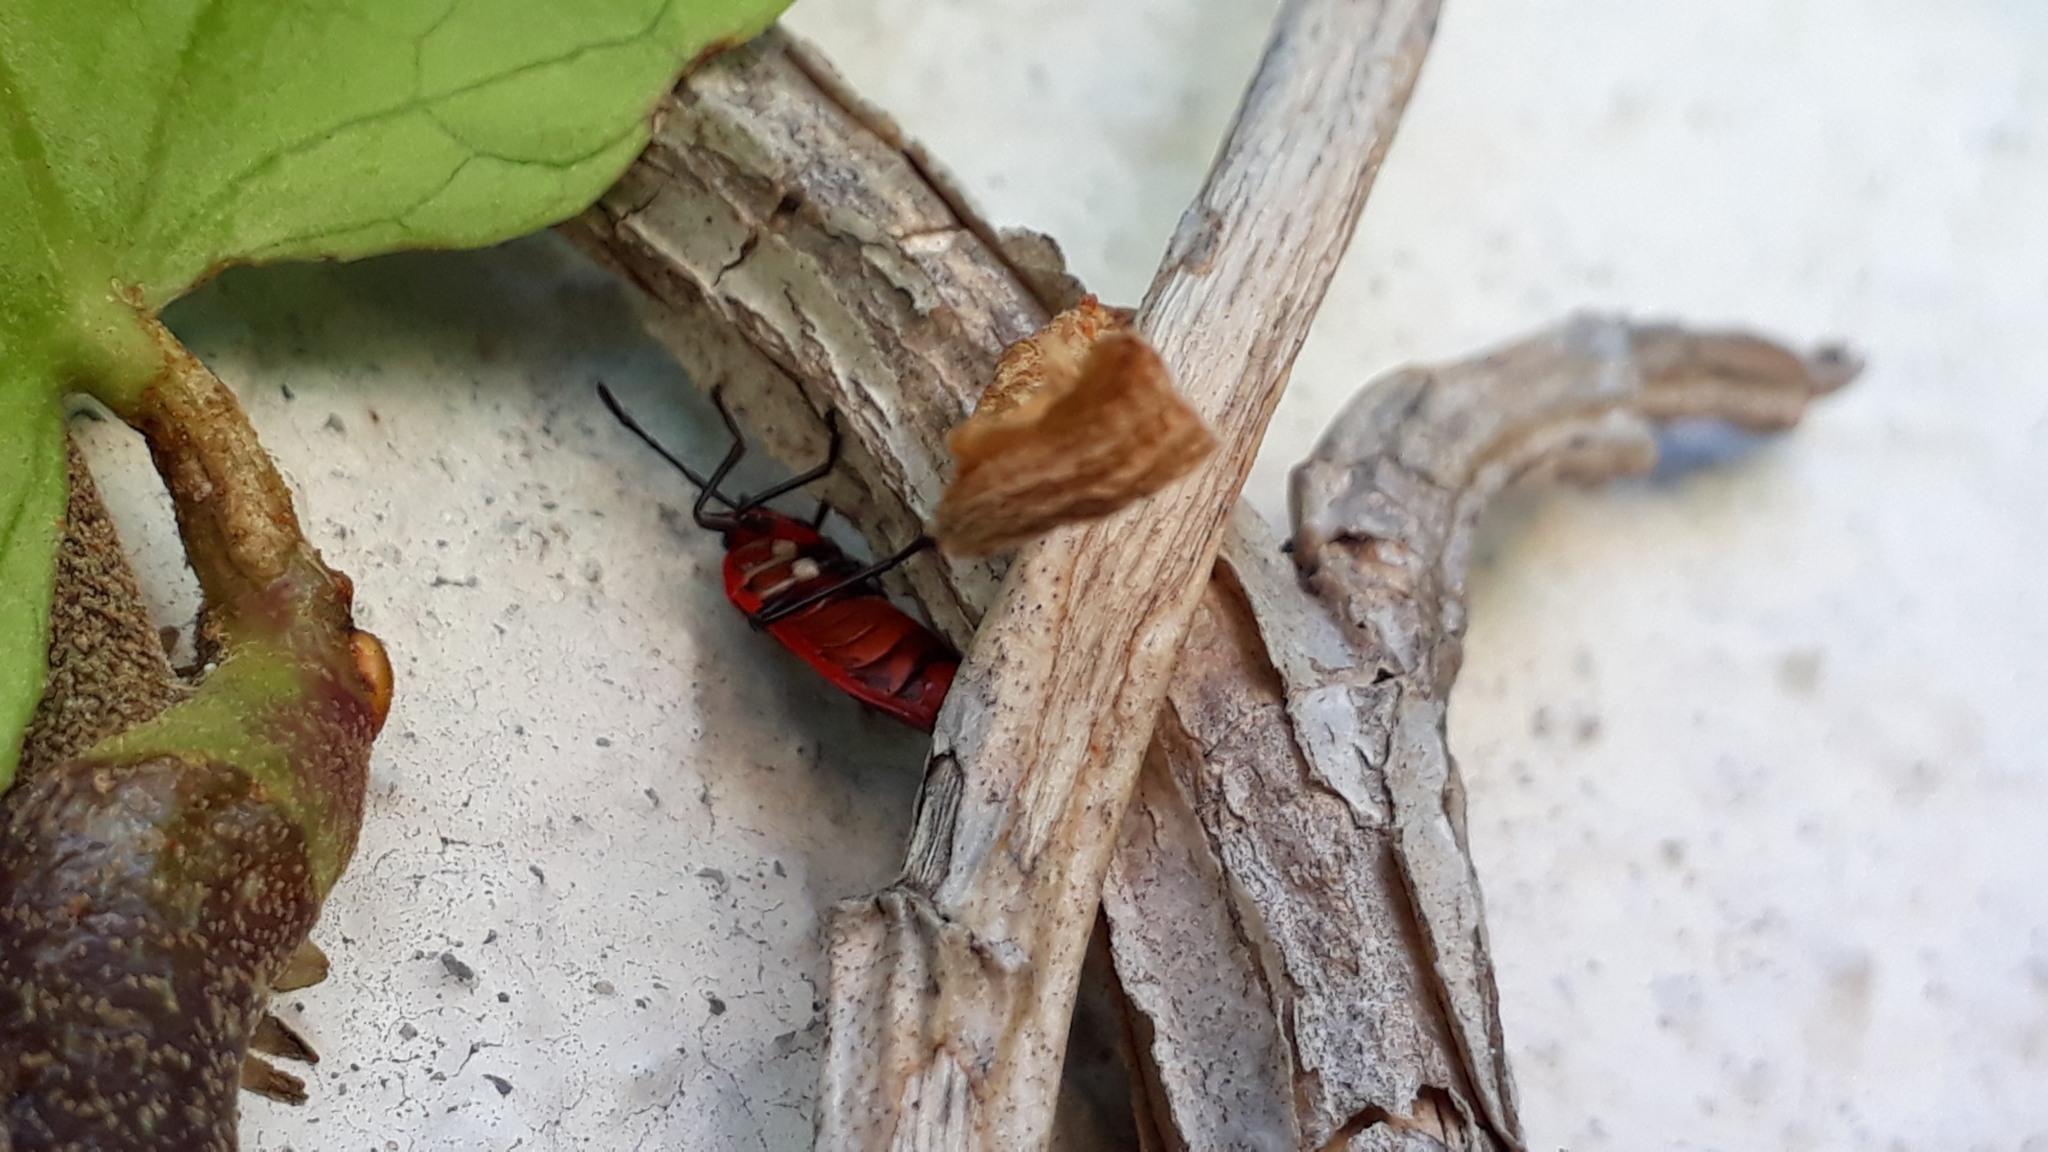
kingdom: Animalia
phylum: Arthropoda
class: Insecta
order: Hemiptera
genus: Cenaeus
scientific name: Cenaeus
